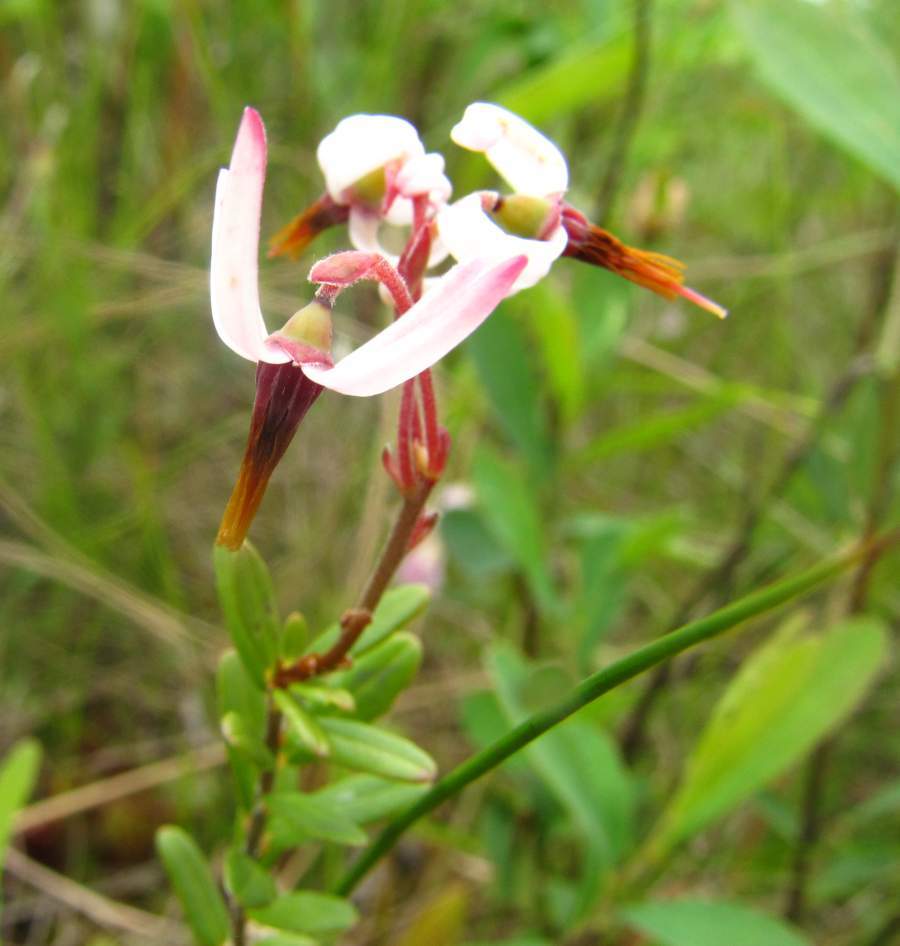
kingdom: Plantae
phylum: Tracheophyta
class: Magnoliopsida
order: Ericales
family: Ericaceae
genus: Vaccinium
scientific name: Vaccinium oxycoccos
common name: Cranberry
